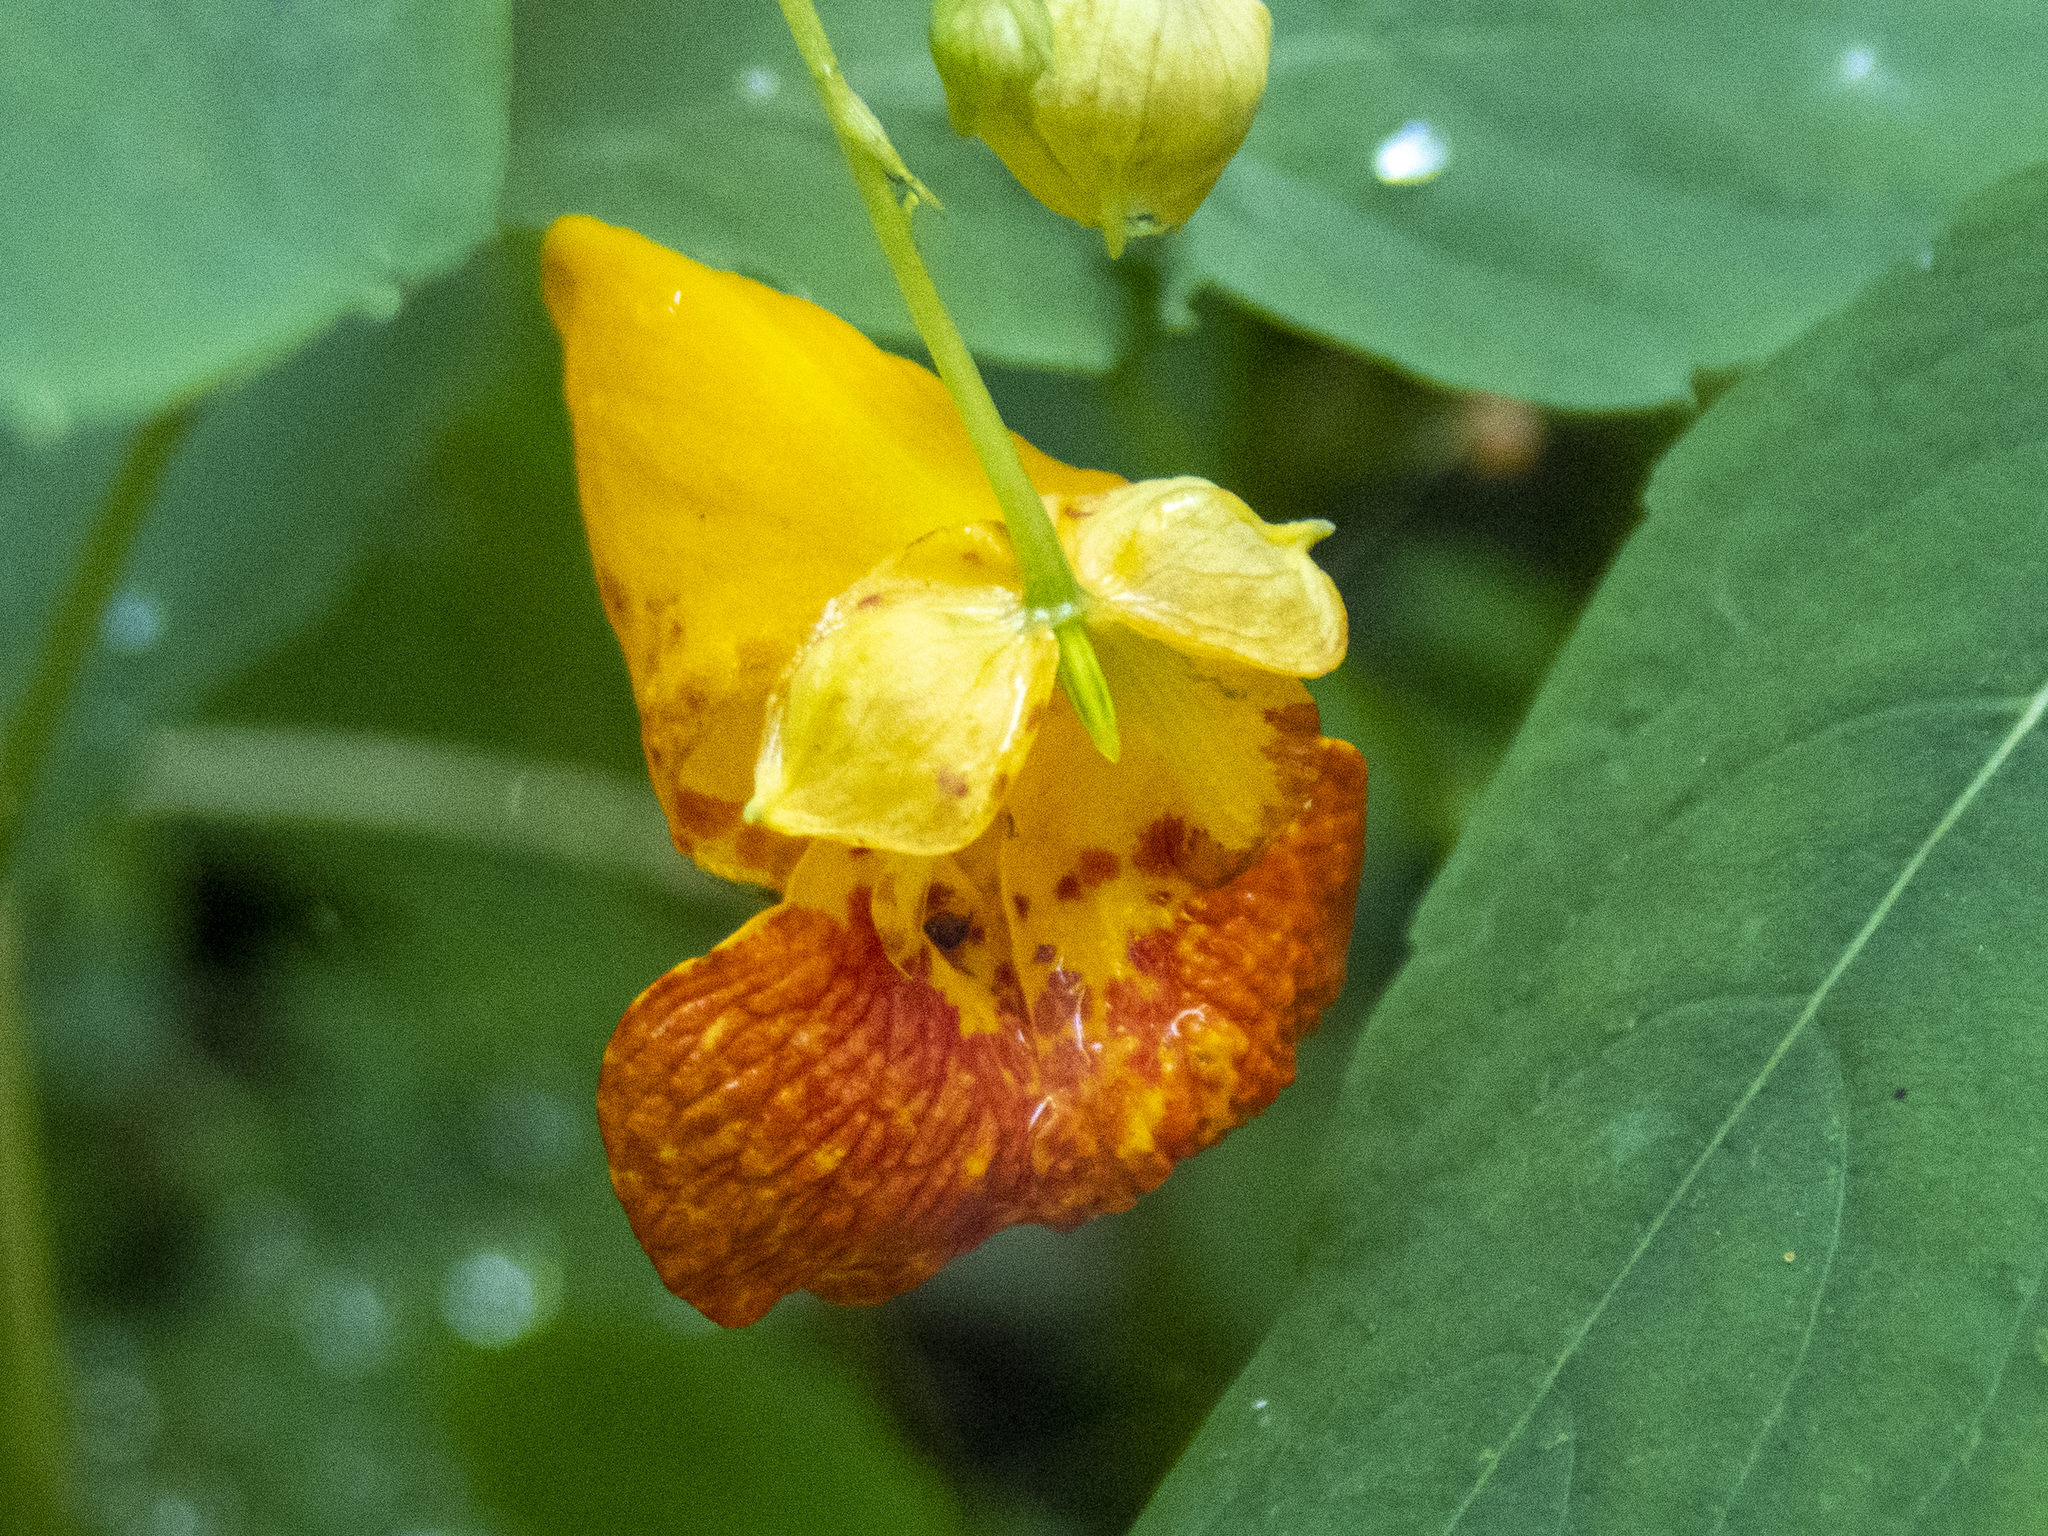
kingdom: Plantae
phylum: Tracheophyta
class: Magnoliopsida
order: Ericales
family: Balsaminaceae
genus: Impatiens
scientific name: Impatiens capensis
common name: Orange balsam
